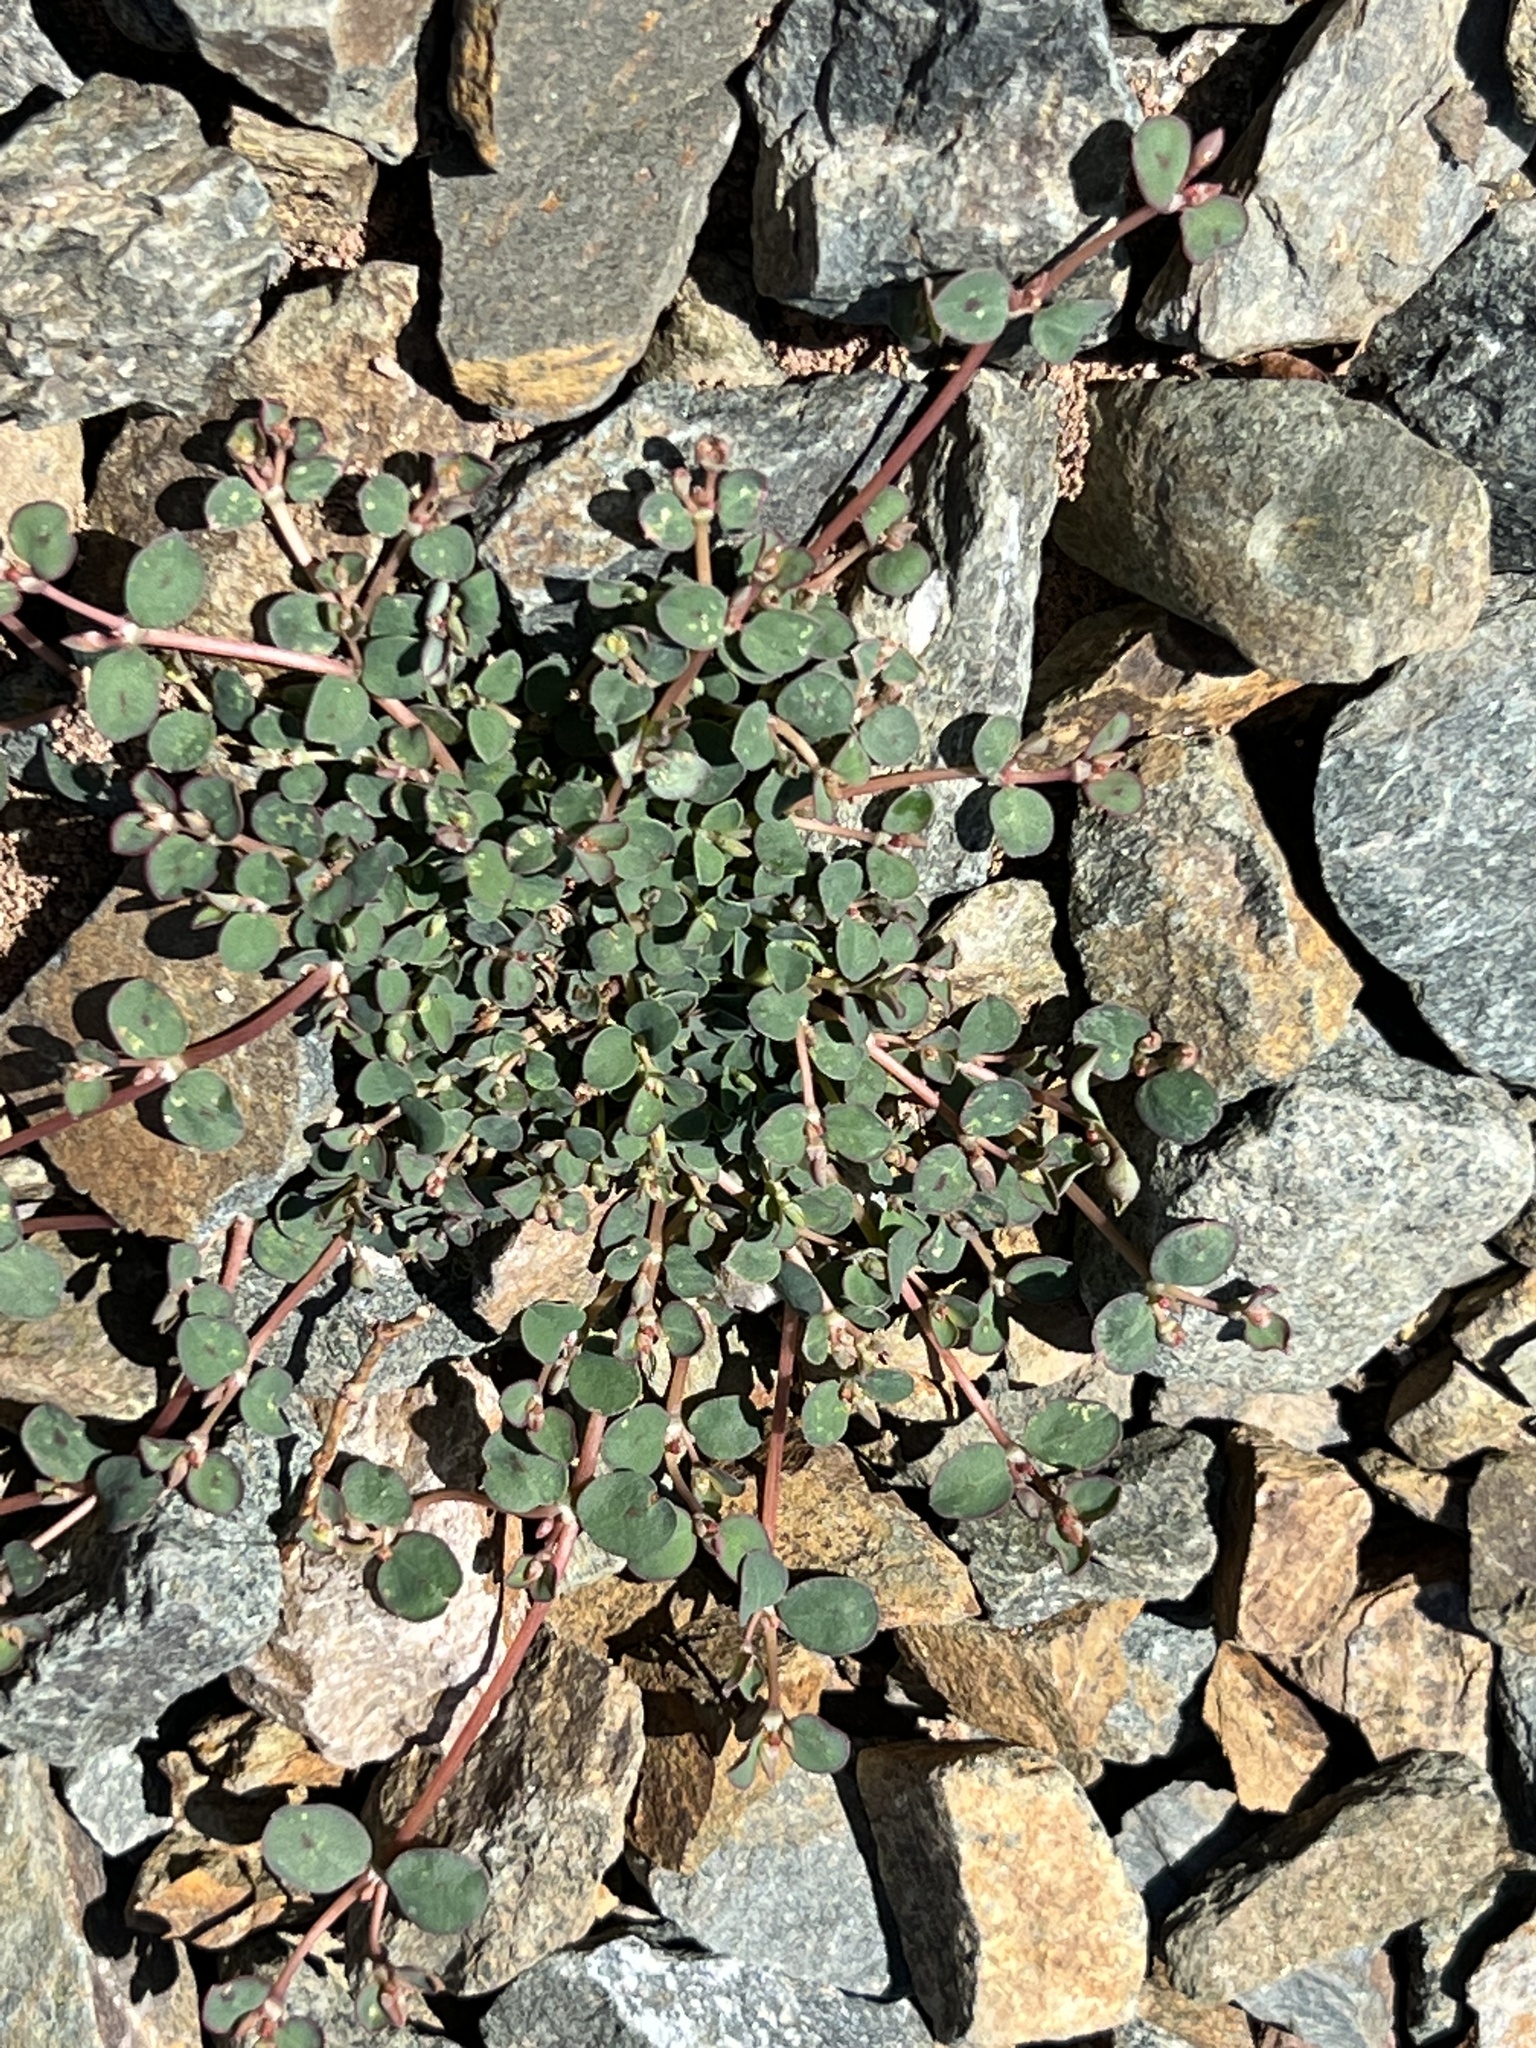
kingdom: Plantae
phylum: Tracheophyta
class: Magnoliopsida
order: Malpighiales
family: Euphorbiaceae
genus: Euphorbia
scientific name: Euphorbia albomarginata
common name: Whitemargin sandmat
